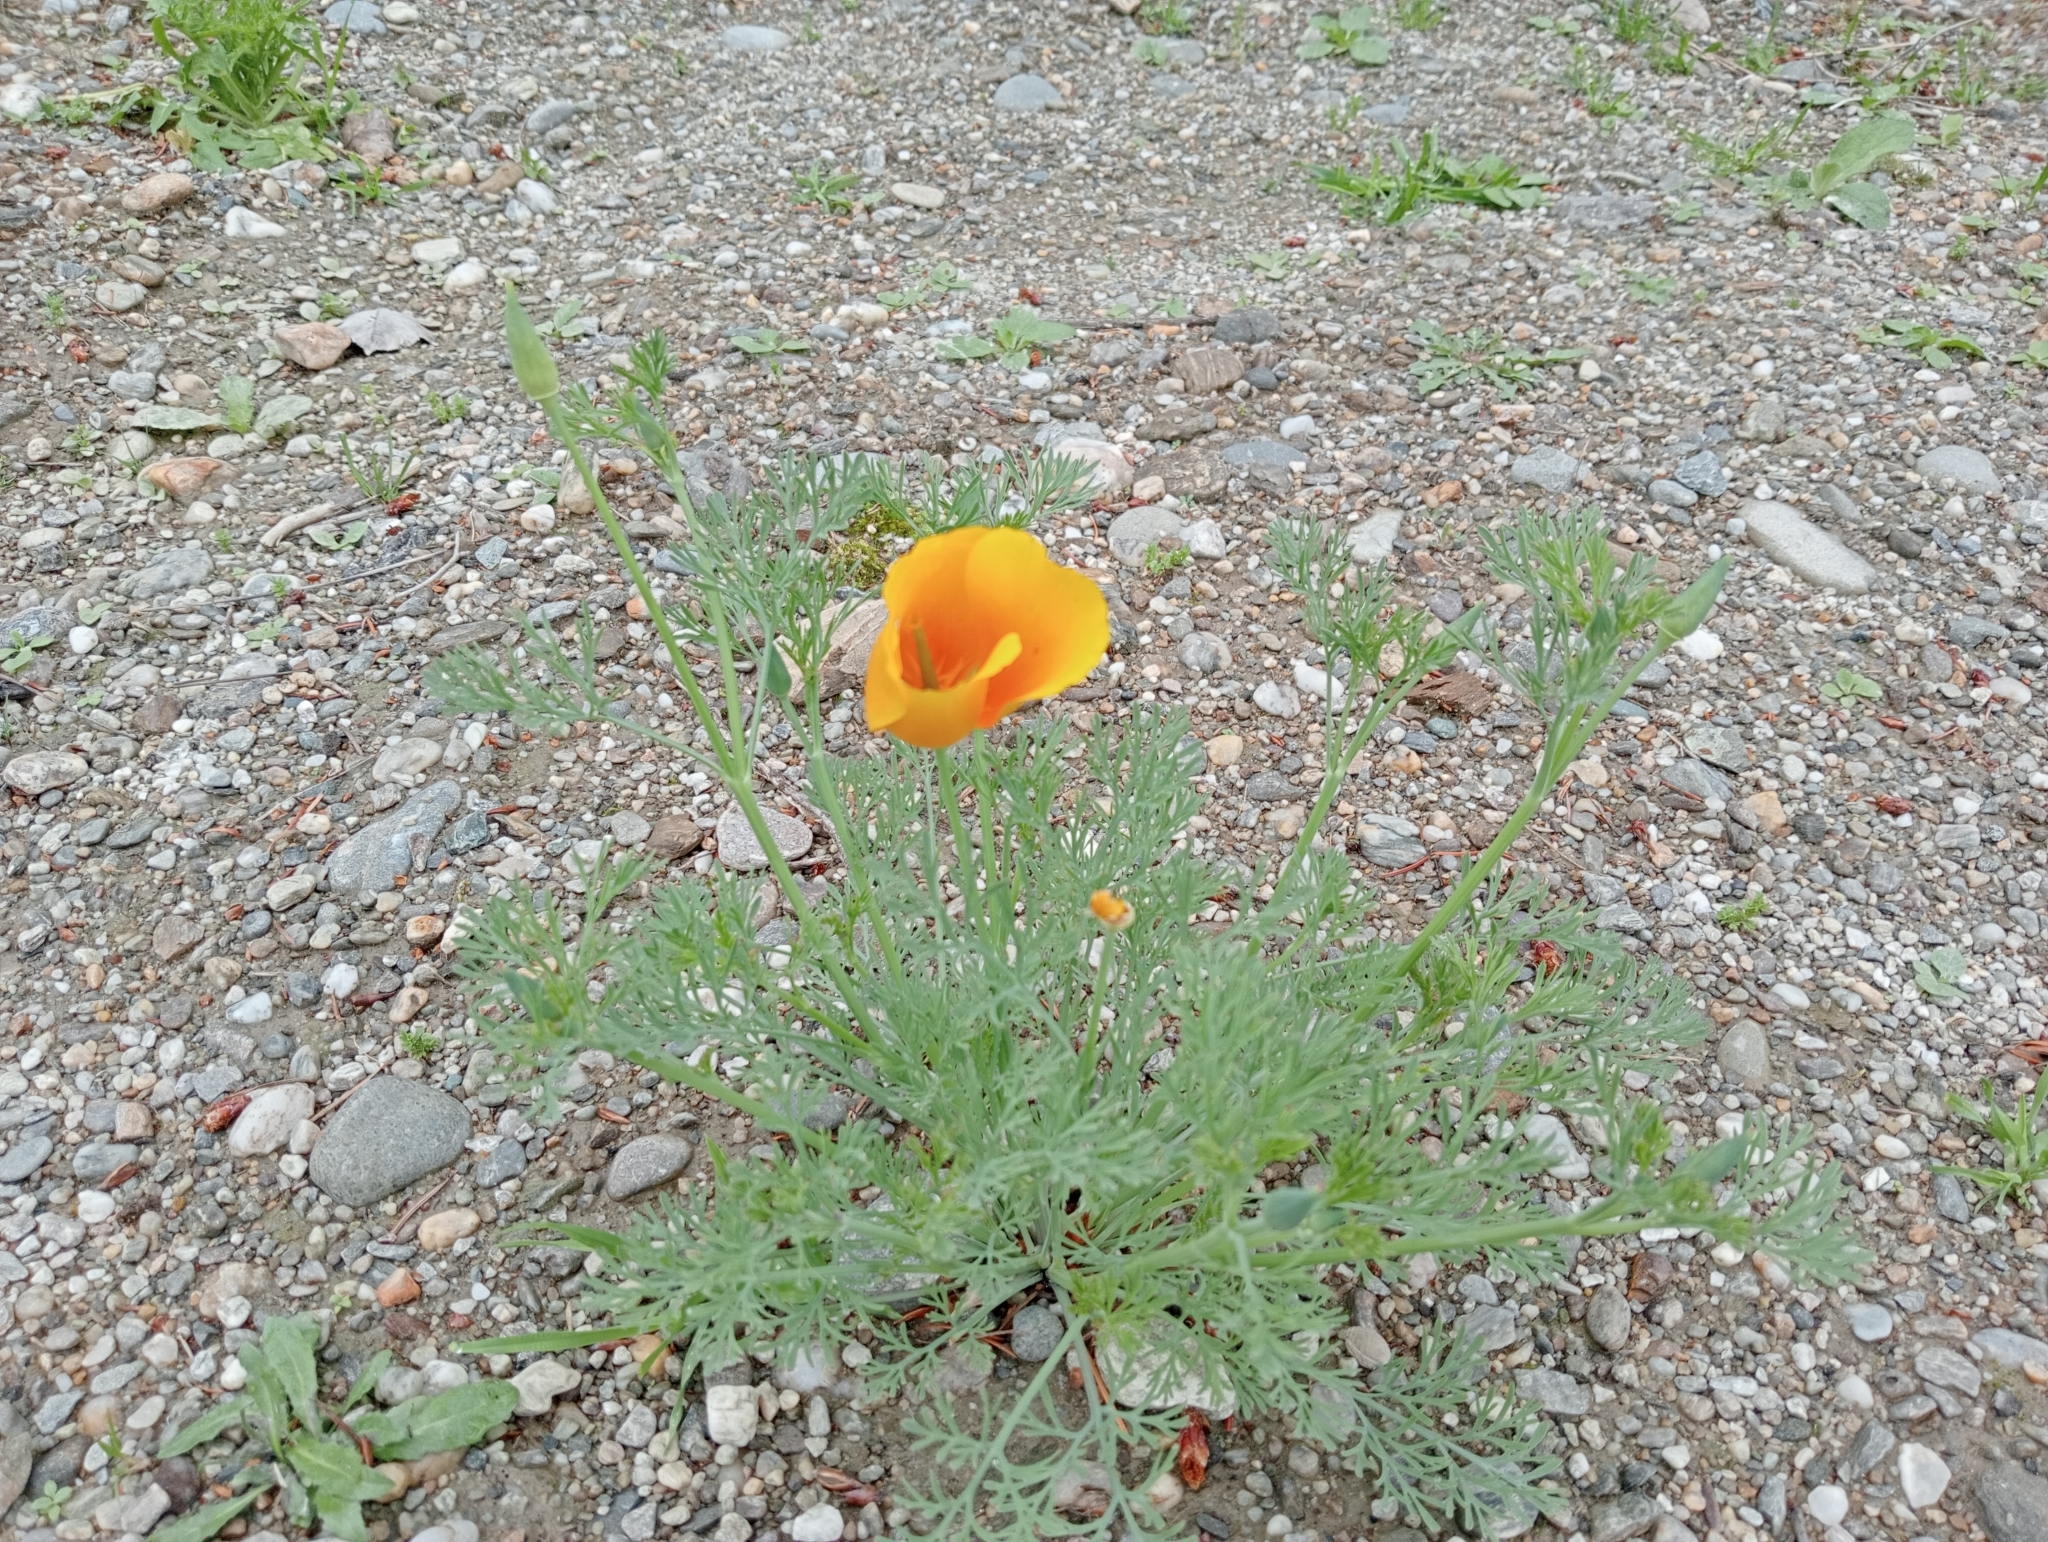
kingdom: Plantae
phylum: Tracheophyta
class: Magnoliopsida
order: Ranunculales
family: Papaveraceae
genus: Eschscholzia
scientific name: Eschscholzia californica
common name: California poppy
